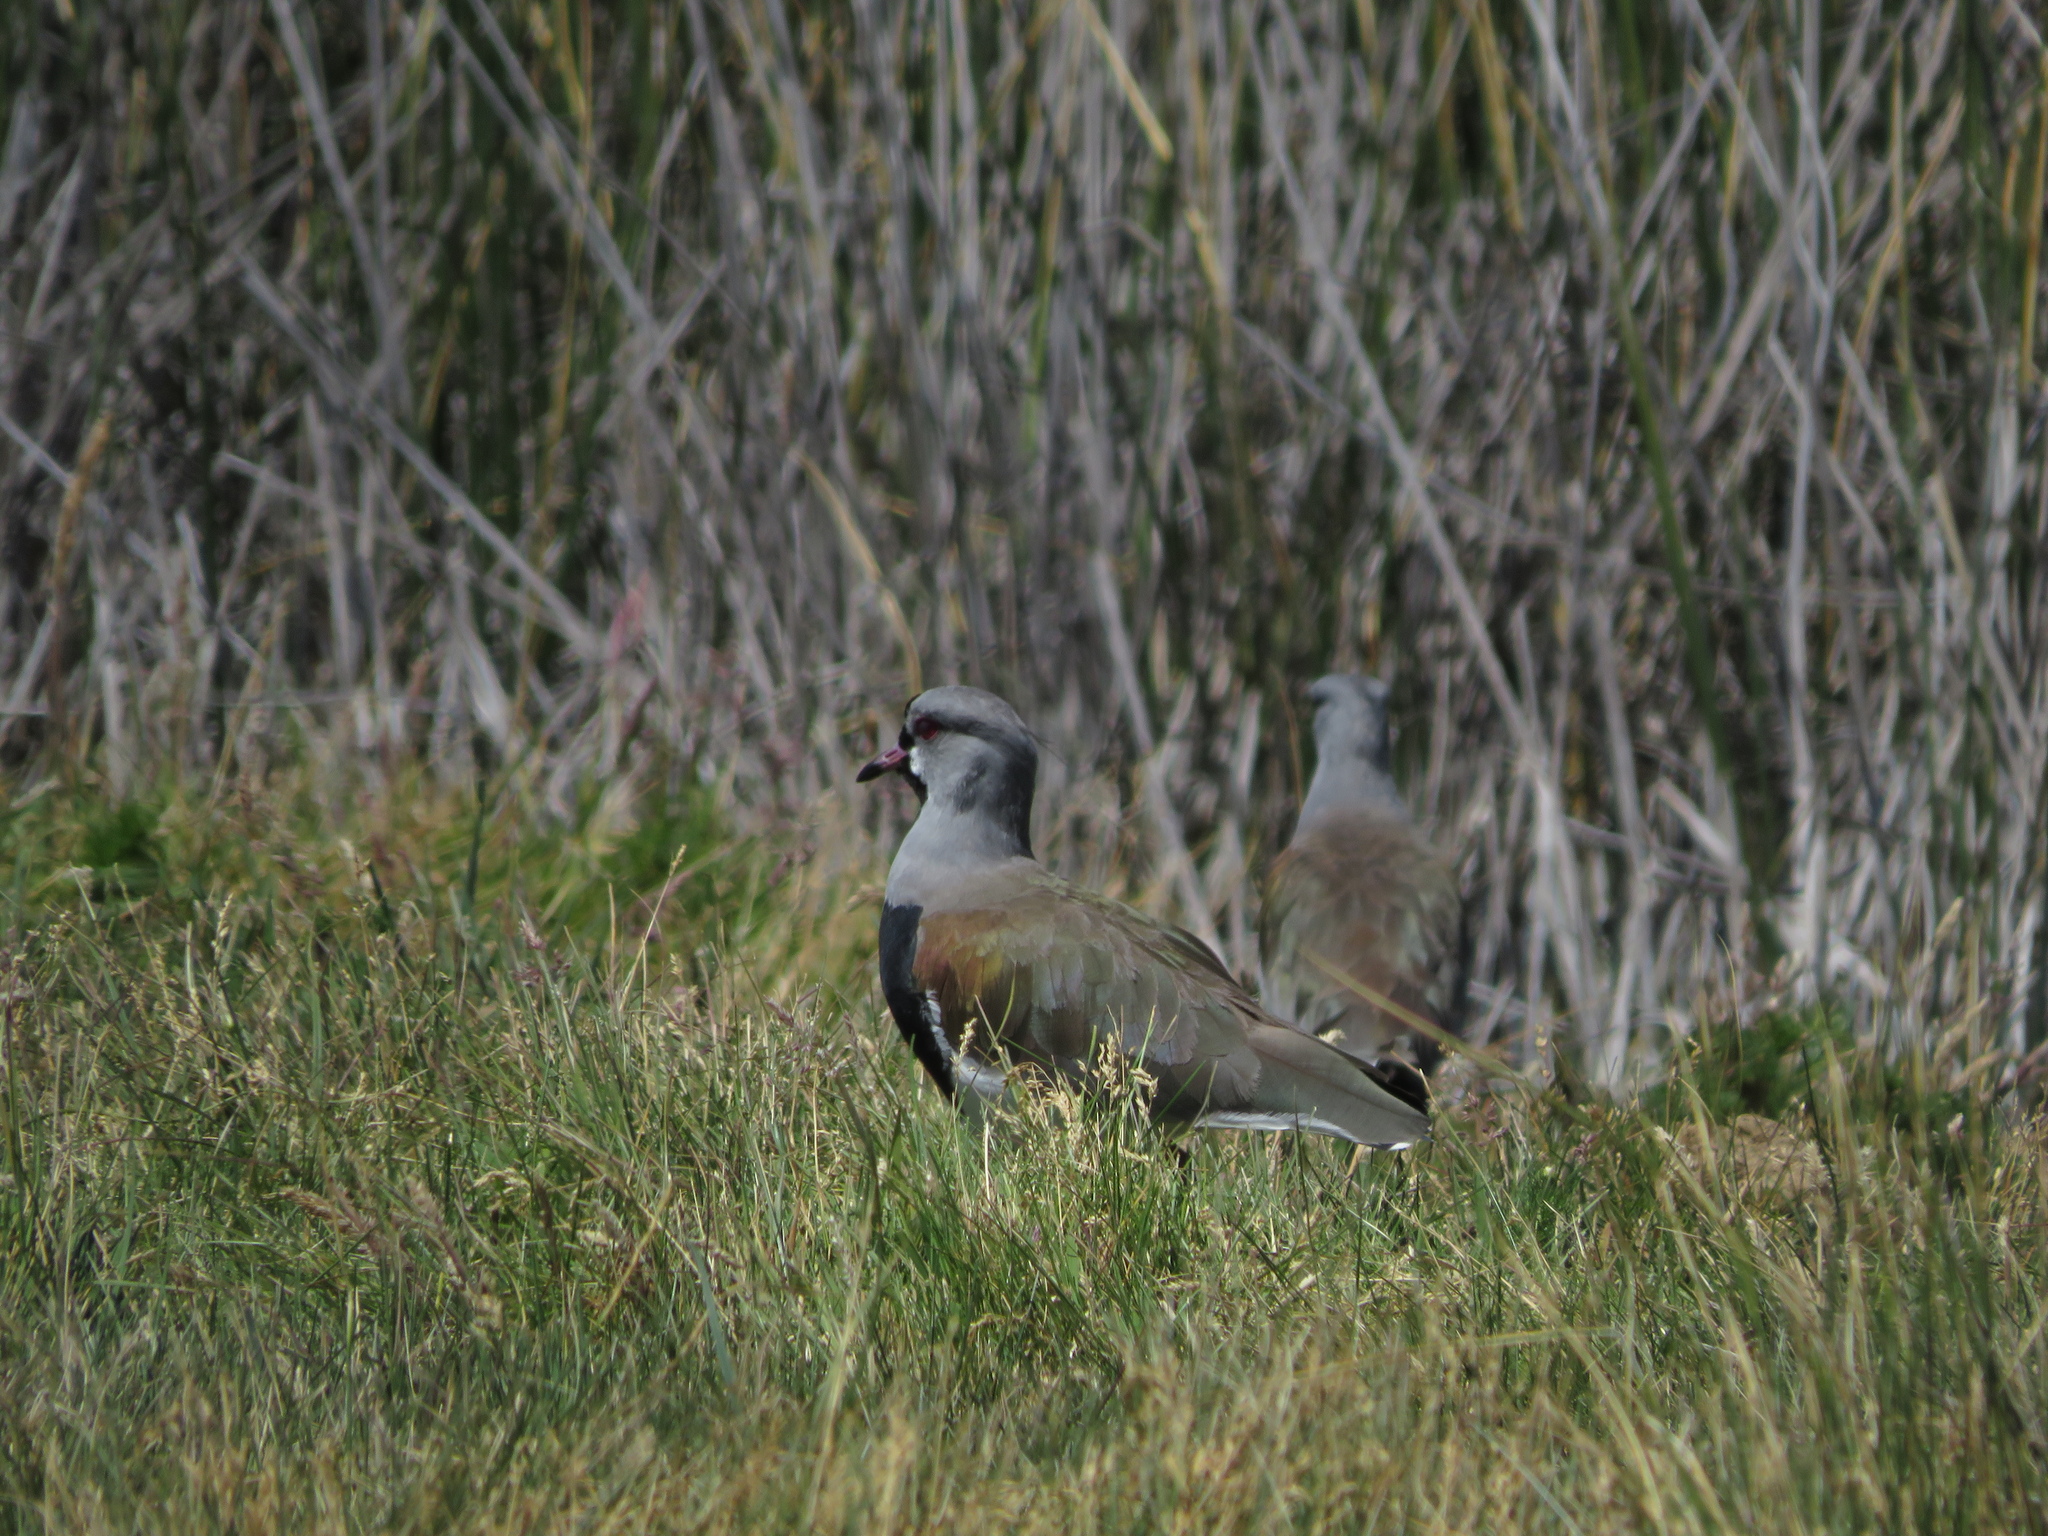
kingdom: Animalia
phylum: Chordata
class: Aves
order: Charadriiformes
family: Charadriidae
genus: Vanellus
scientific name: Vanellus chilensis
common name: Southern lapwing
